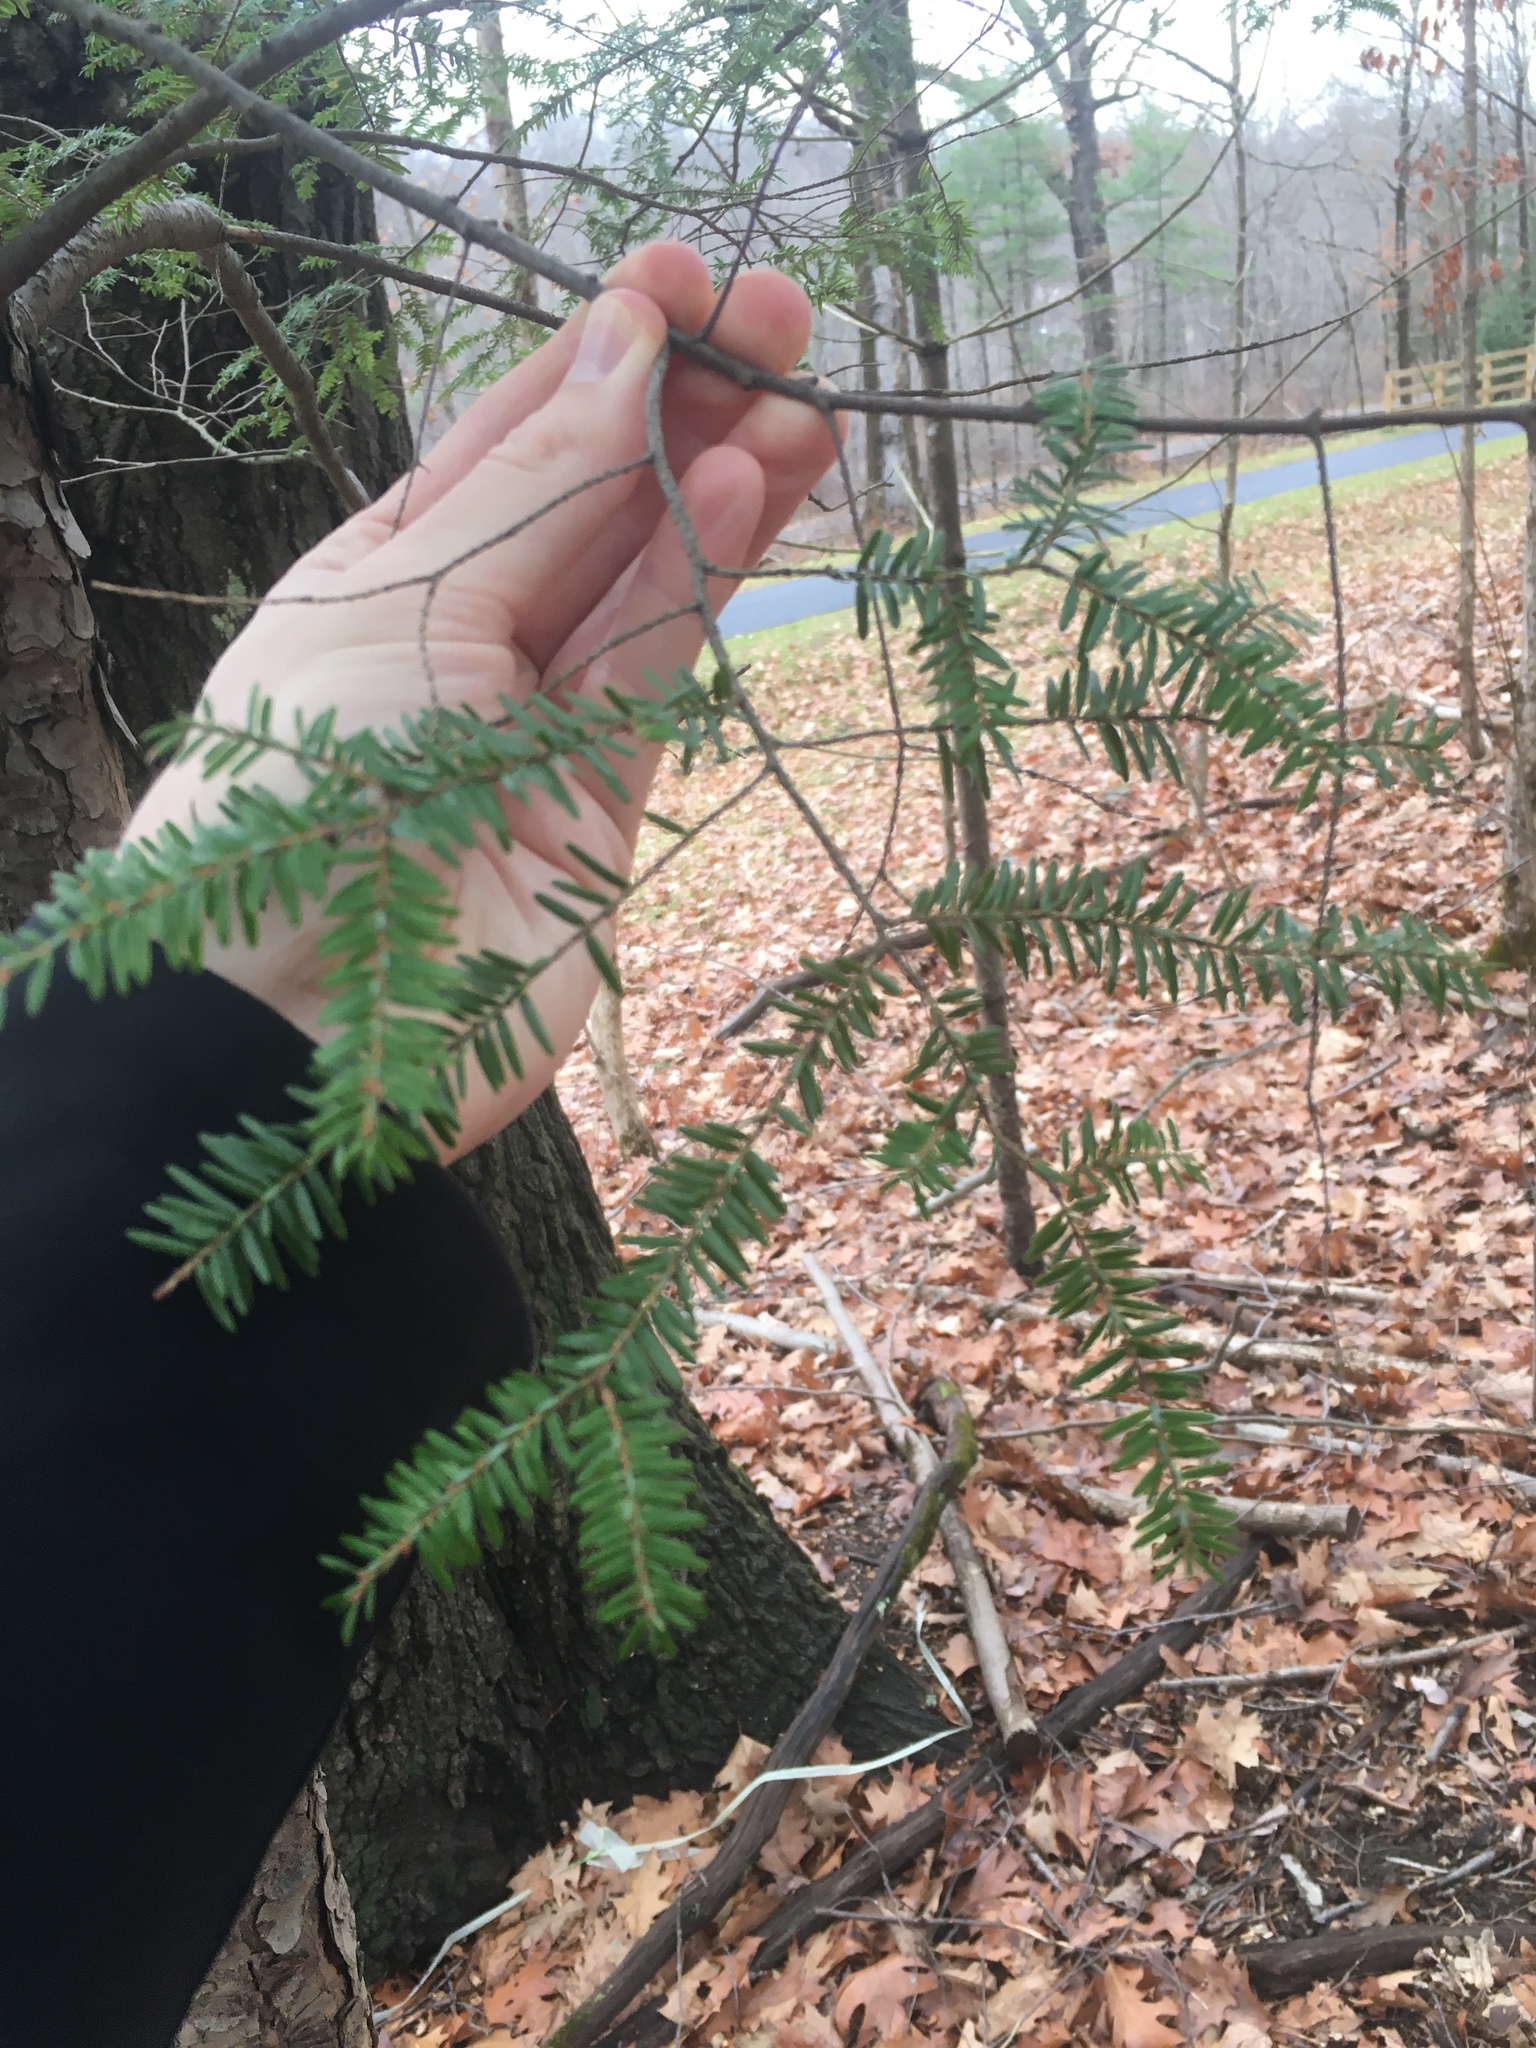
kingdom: Plantae
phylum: Tracheophyta
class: Pinopsida
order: Pinales
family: Pinaceae
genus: Tsuga
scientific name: Tsuga canadensis
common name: Eastern hemlock
